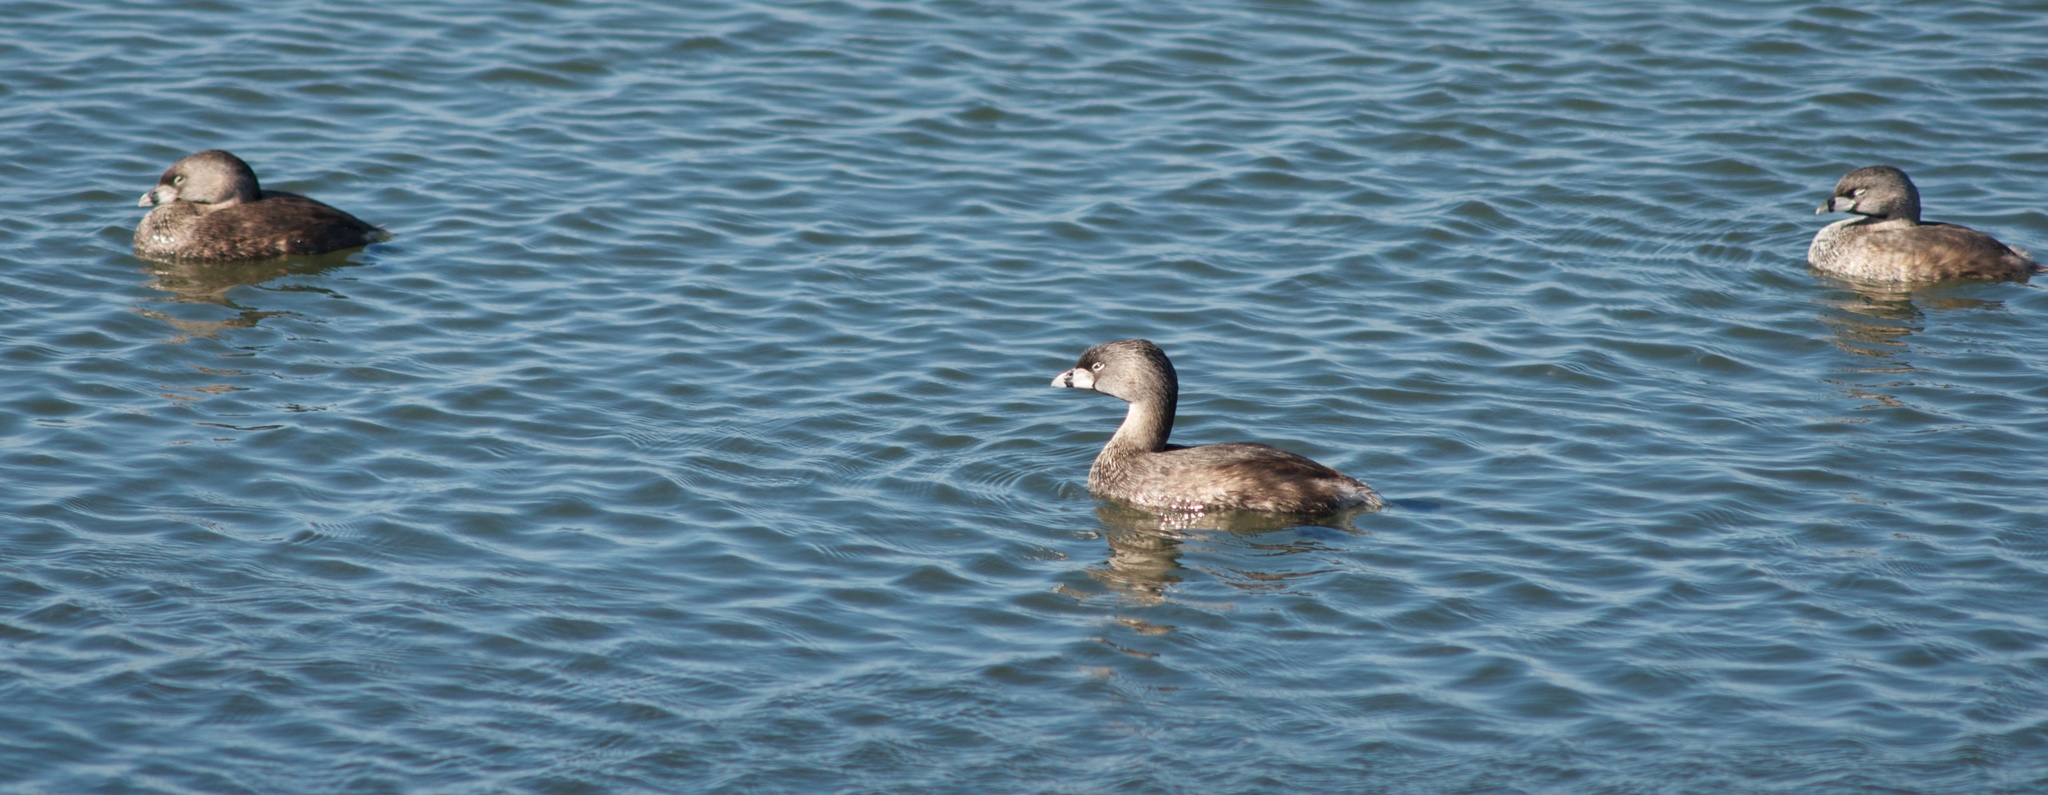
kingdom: Animalia
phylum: Chordata
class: Aves
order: Podicipediformes
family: Podicipedidae
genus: Podilymbus
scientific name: Podilymbus podiceps
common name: Pied-billed grebe
